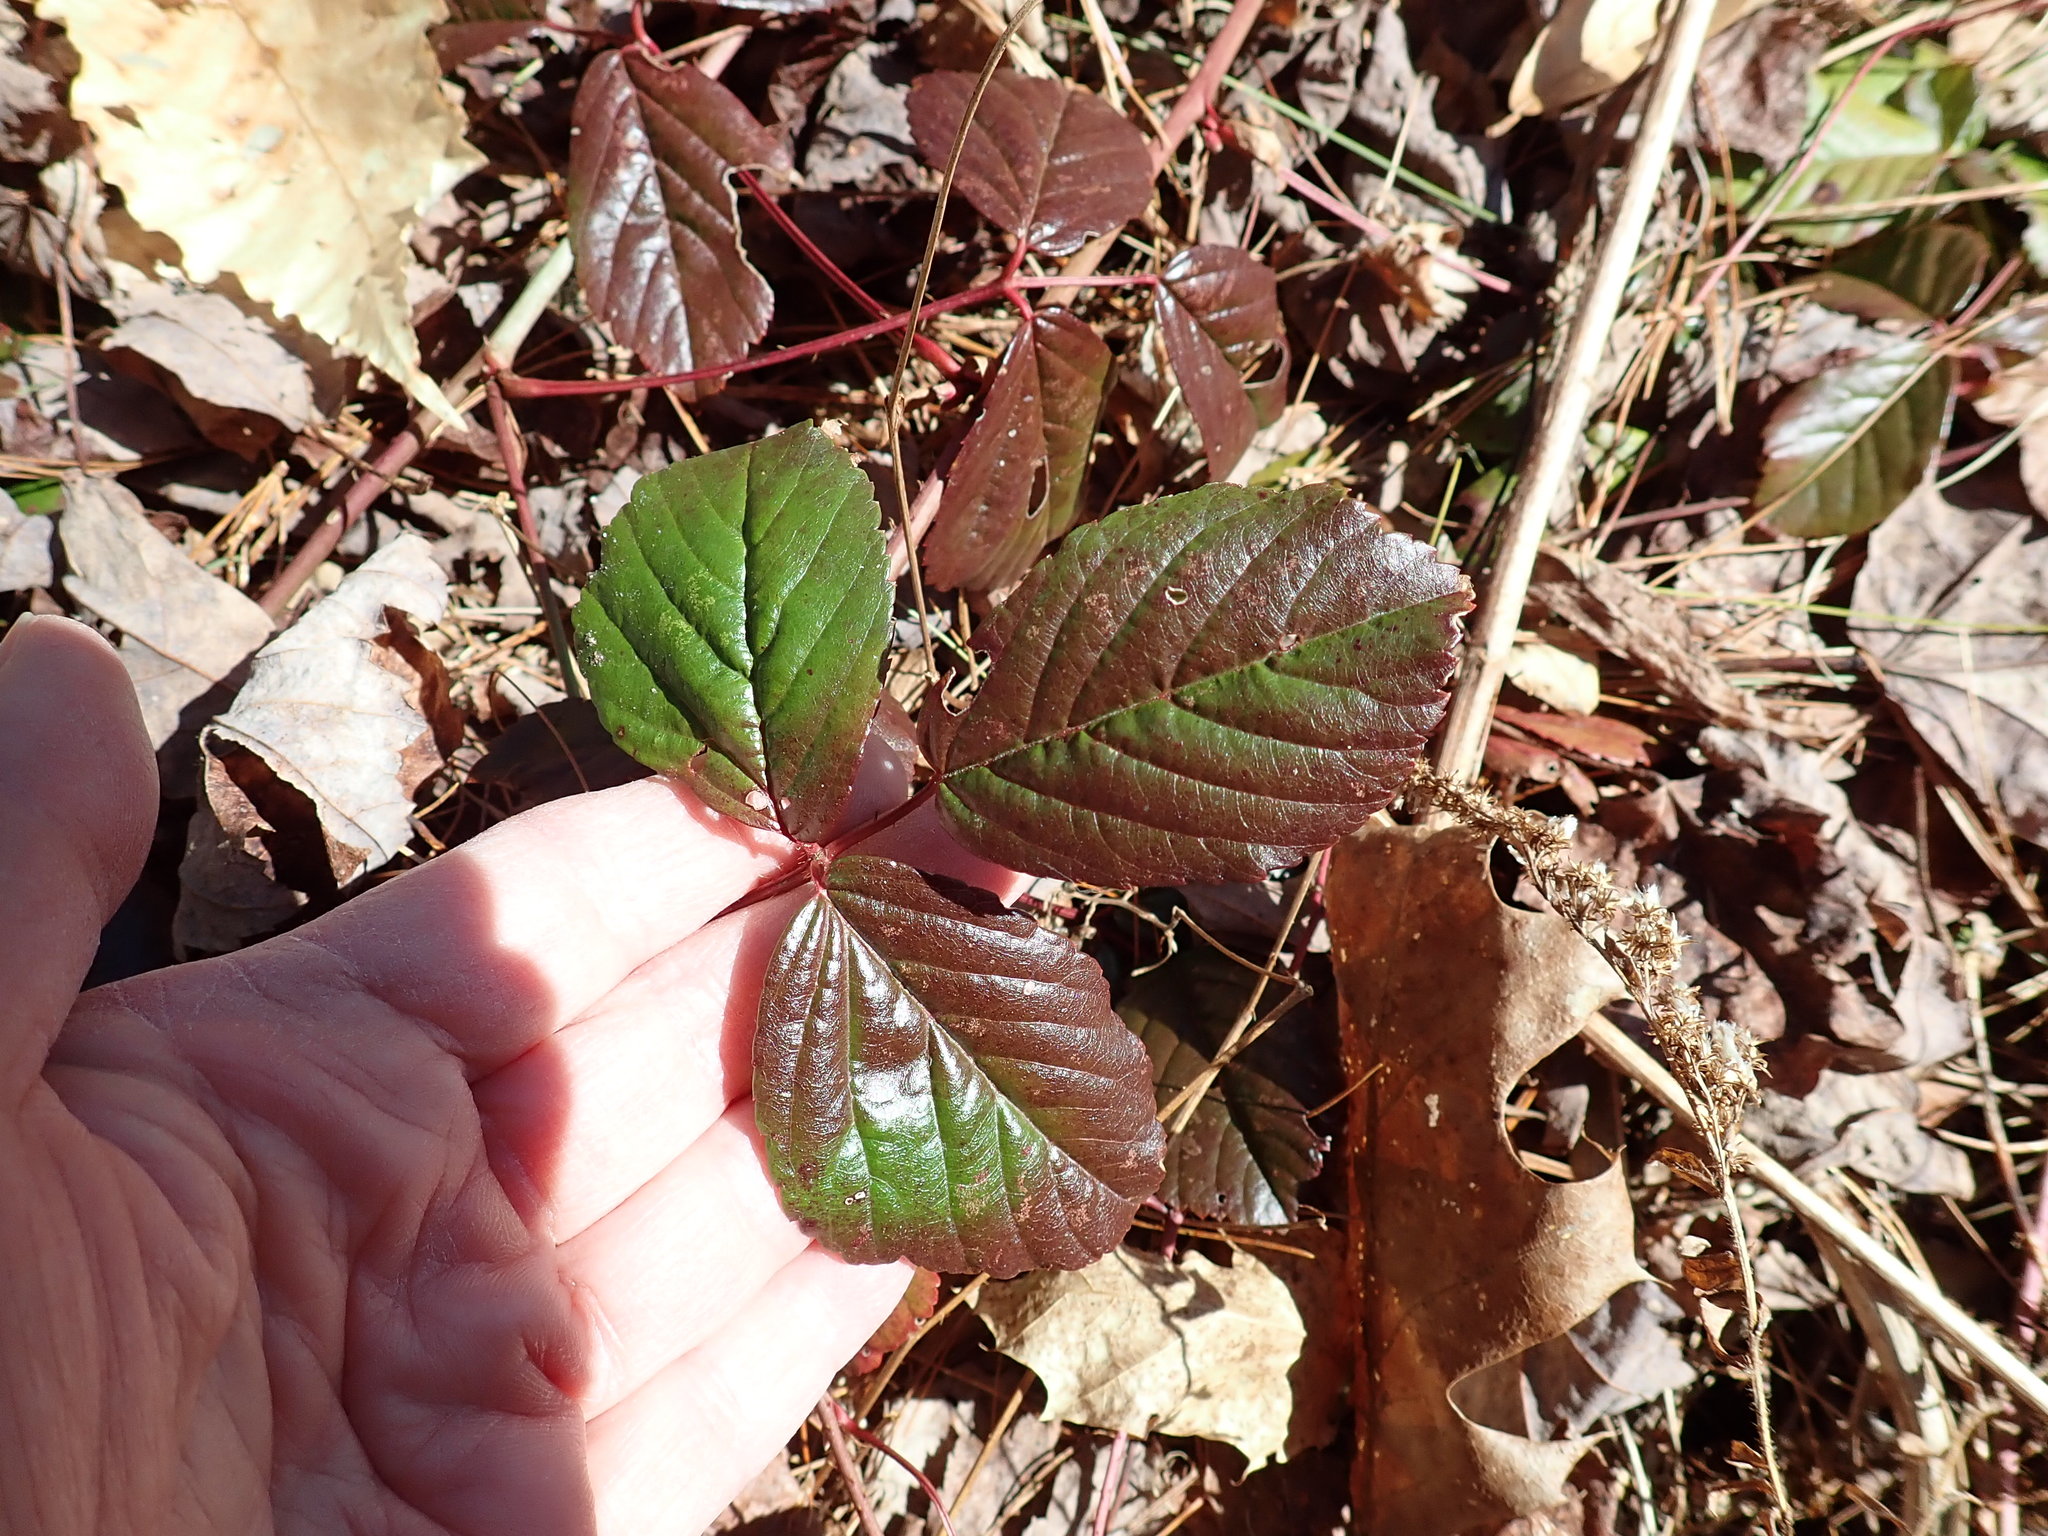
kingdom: Plantae
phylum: Tracheophyta
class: Magnoliopsida
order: Rosales
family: Rosaceae
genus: Rubus
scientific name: Rubus
